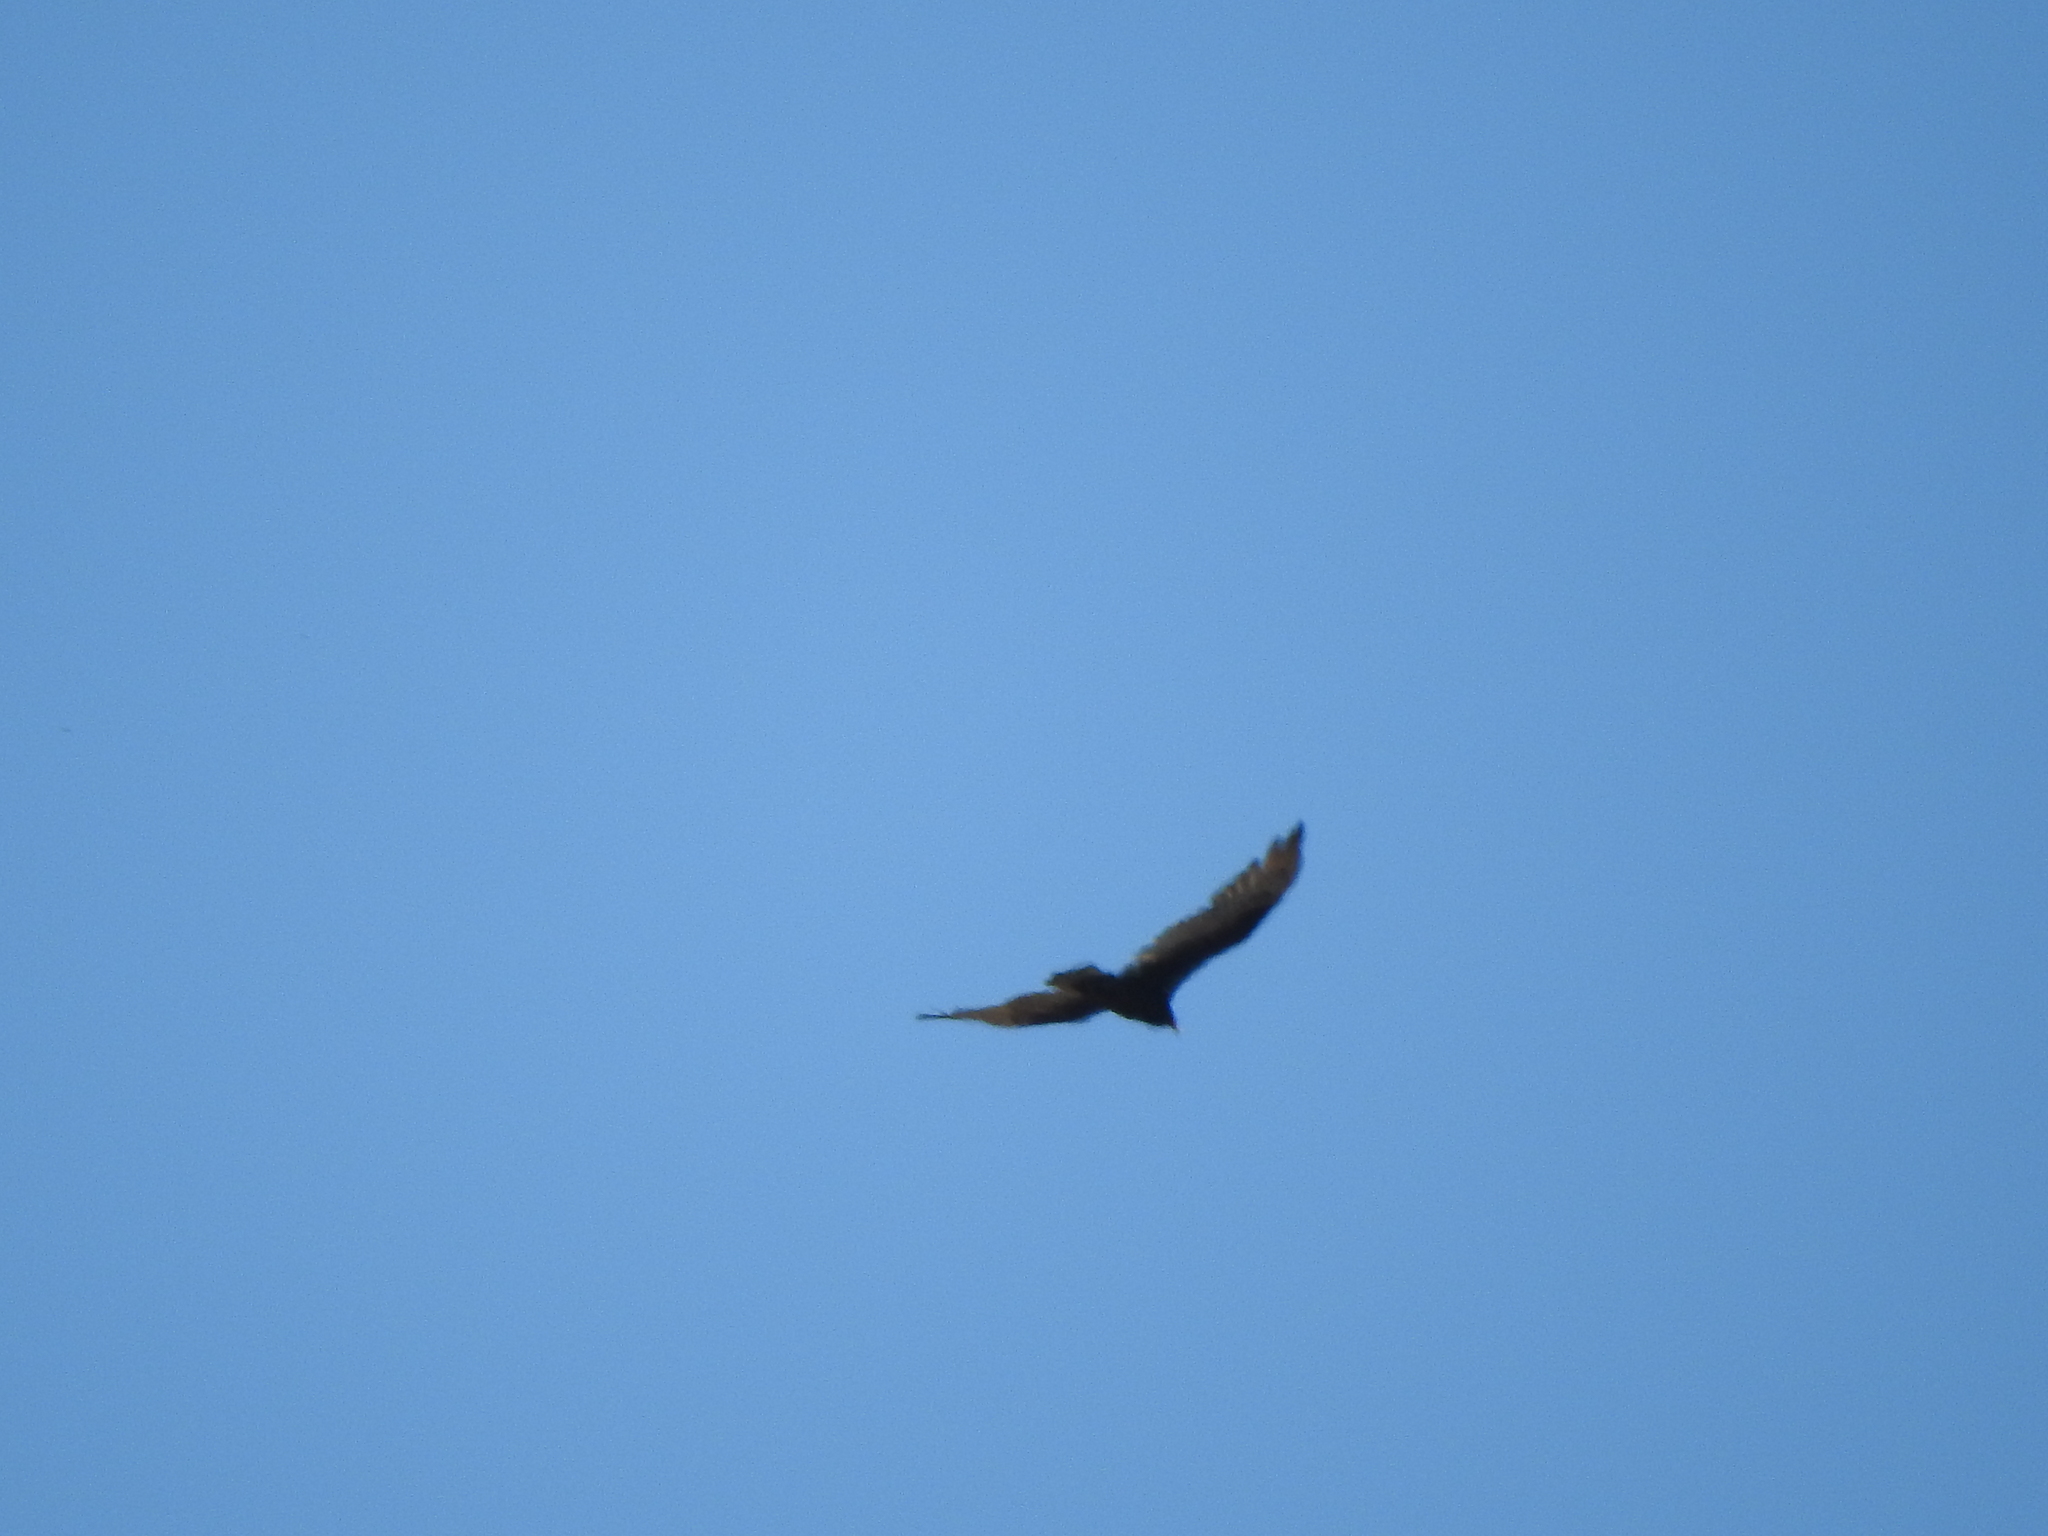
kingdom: Animalia
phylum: Chordata
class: Aves
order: Accipitriformes
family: Cathartidae
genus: Cathartes
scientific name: Cathartes aura
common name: Turkey vulture
